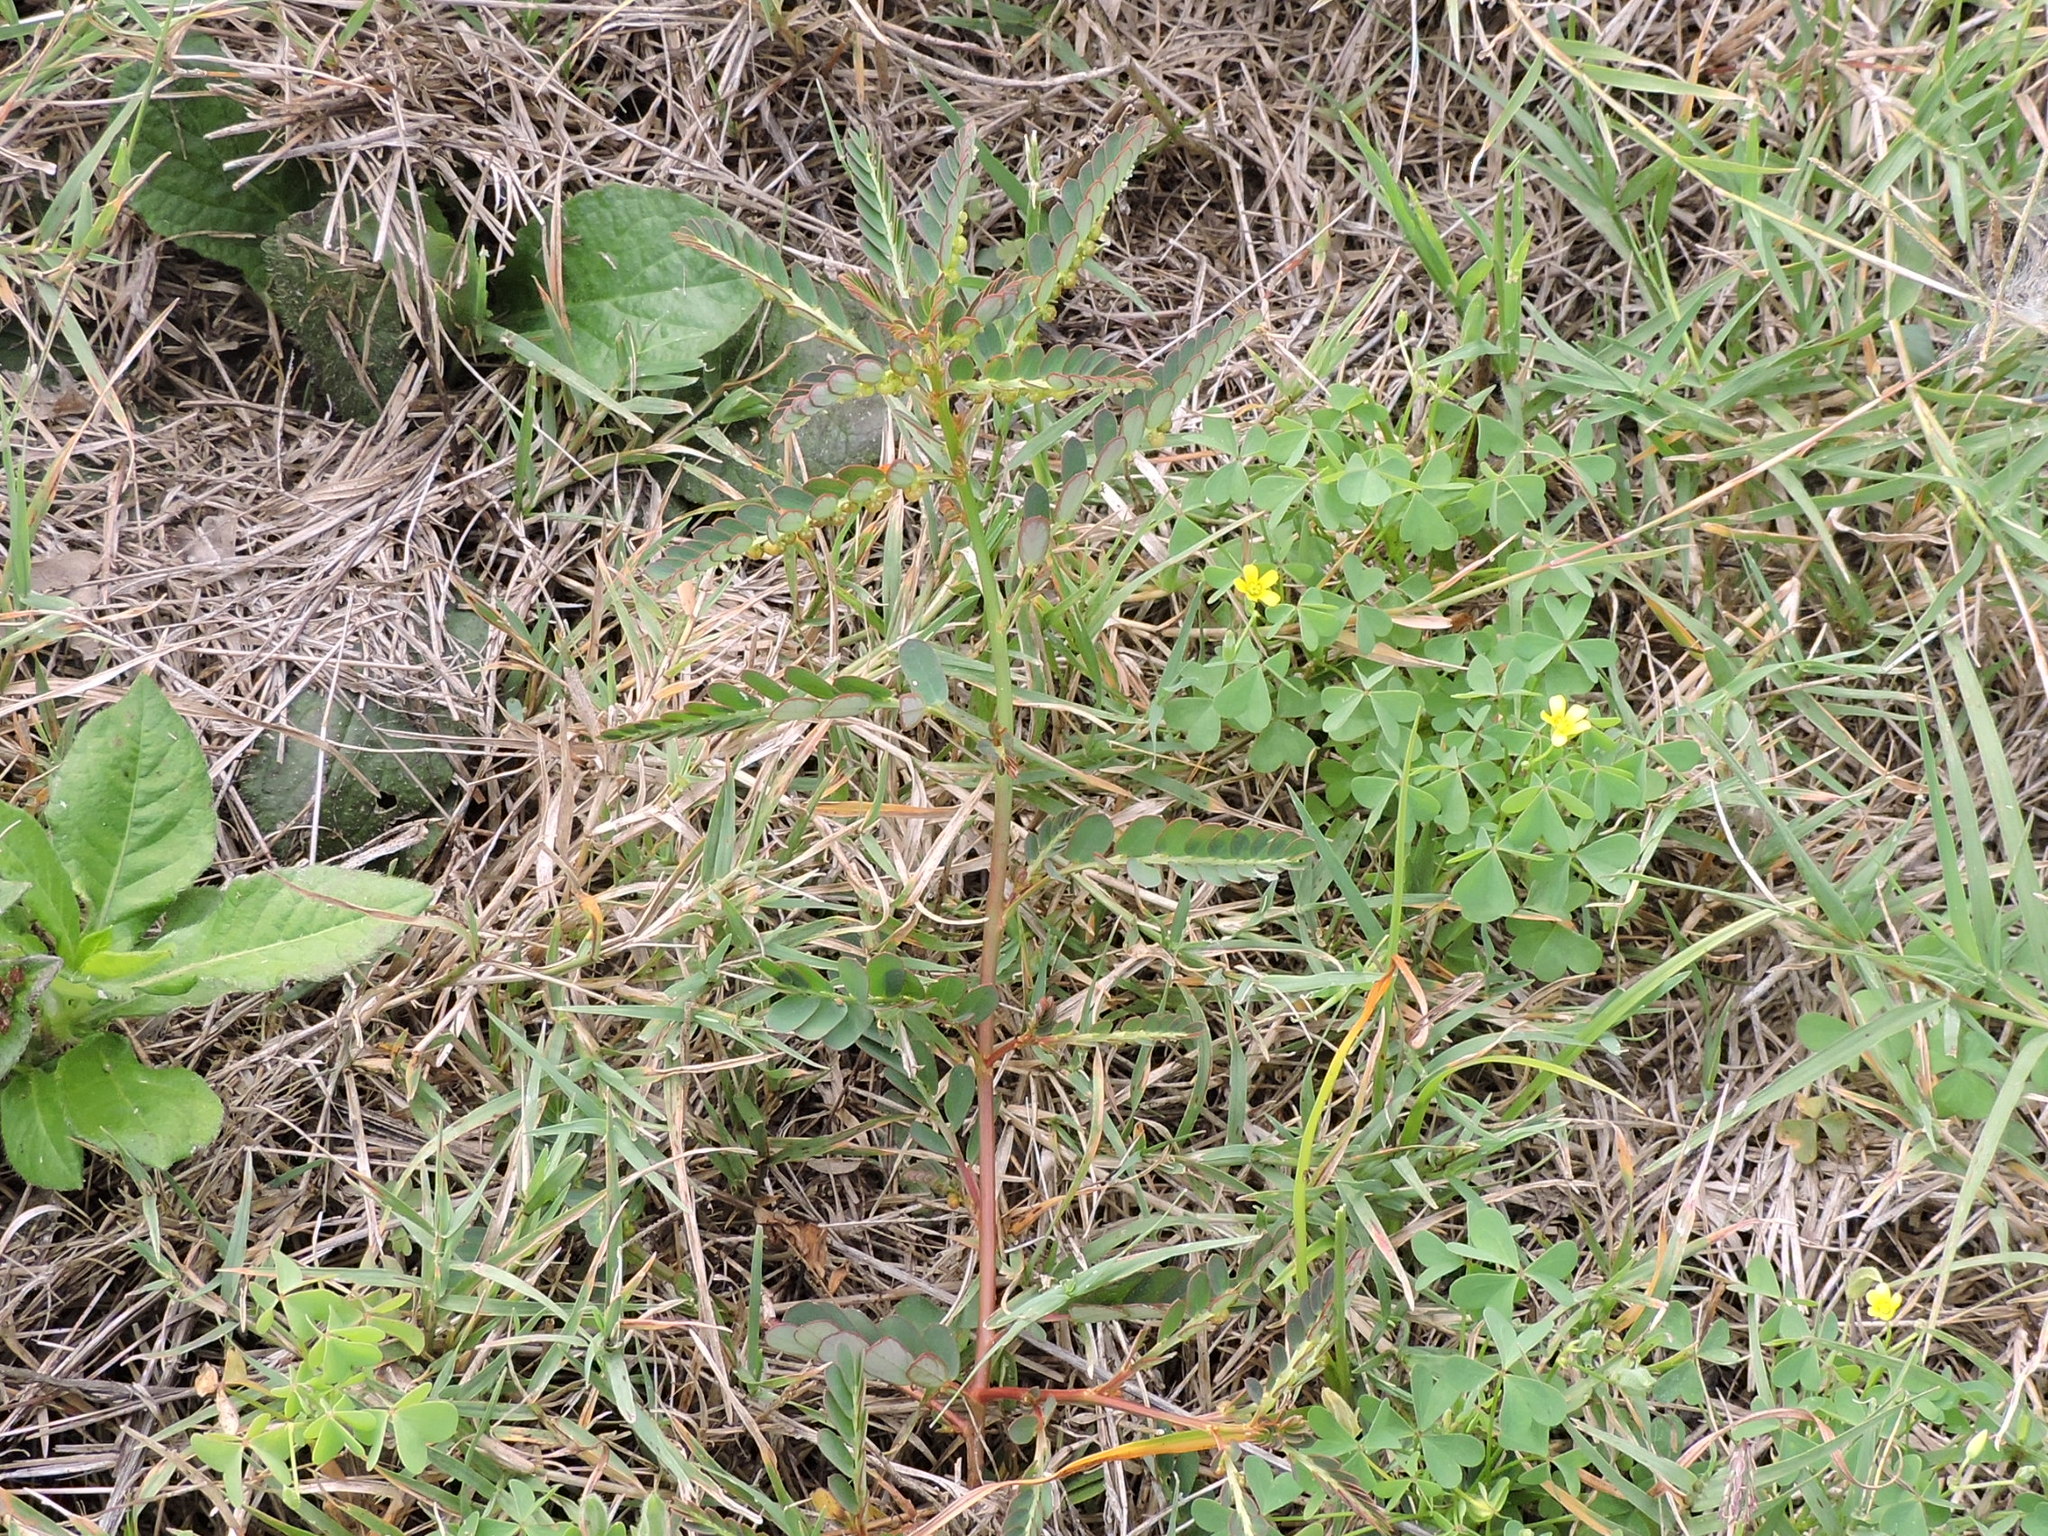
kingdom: Plantae
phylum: Tracheophyta
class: Magnoliopsida
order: Malpighiales
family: Phyllanthaceae
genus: Phyllanthus
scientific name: Phyllanthus urinaria
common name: Chamber bitter
